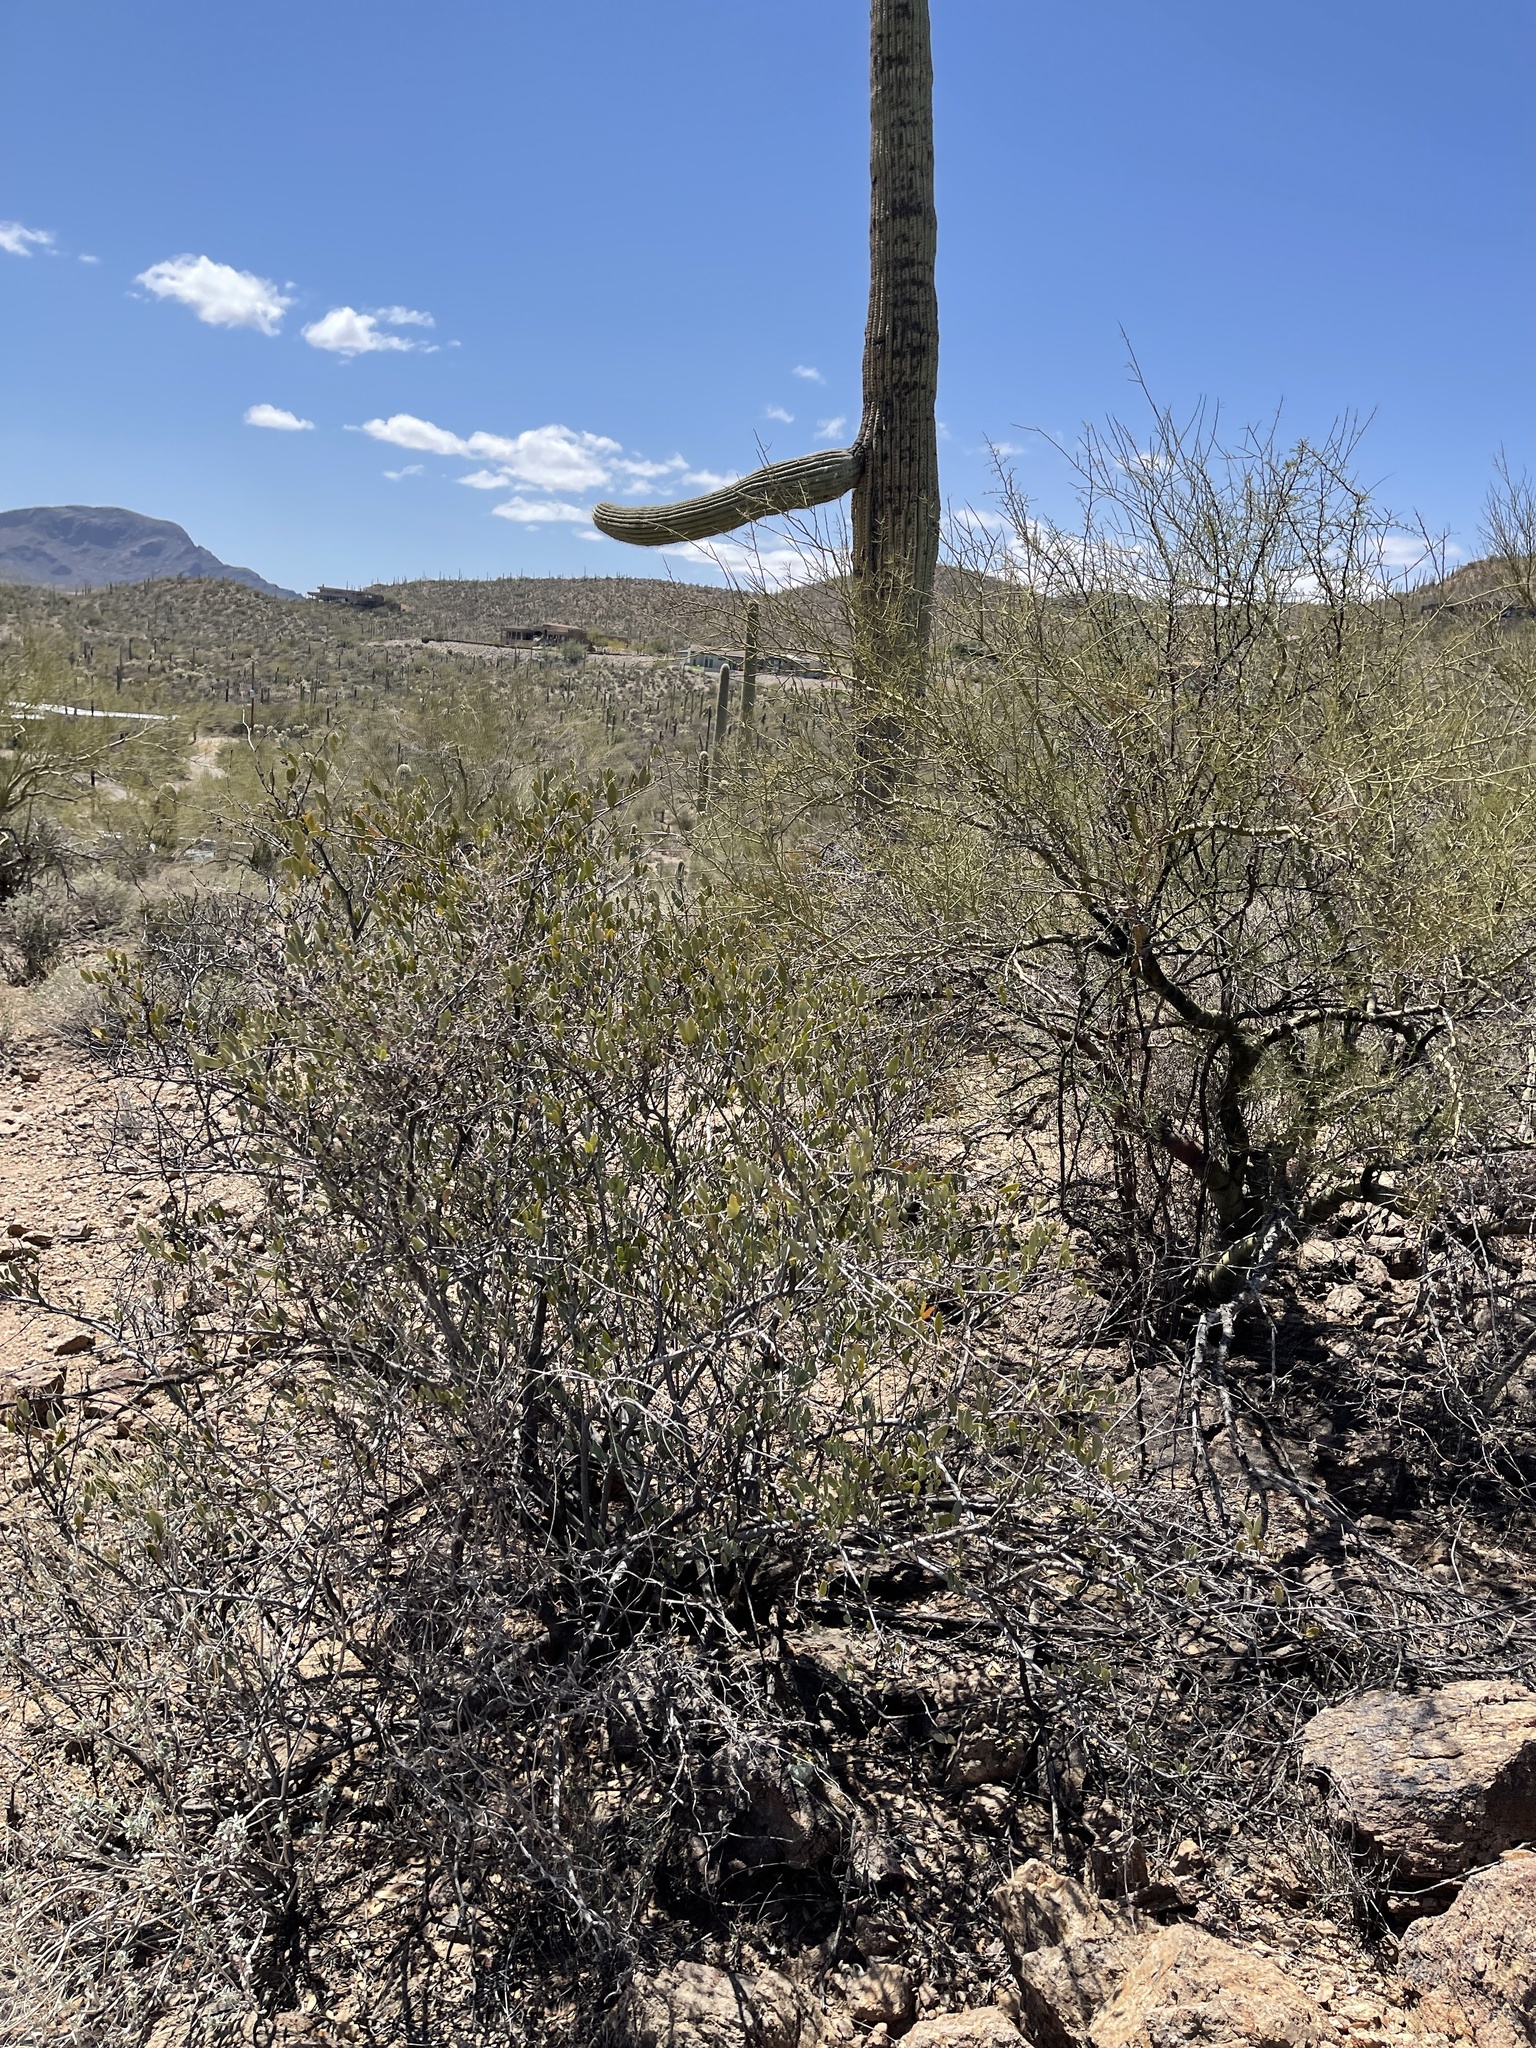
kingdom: Plantae
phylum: Tracheophyta
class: Magnoliopsida
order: Caryophyllales
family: Simmondsiaceae
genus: Simmondsia
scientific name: Simmondsia chinensis
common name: Jojoba
